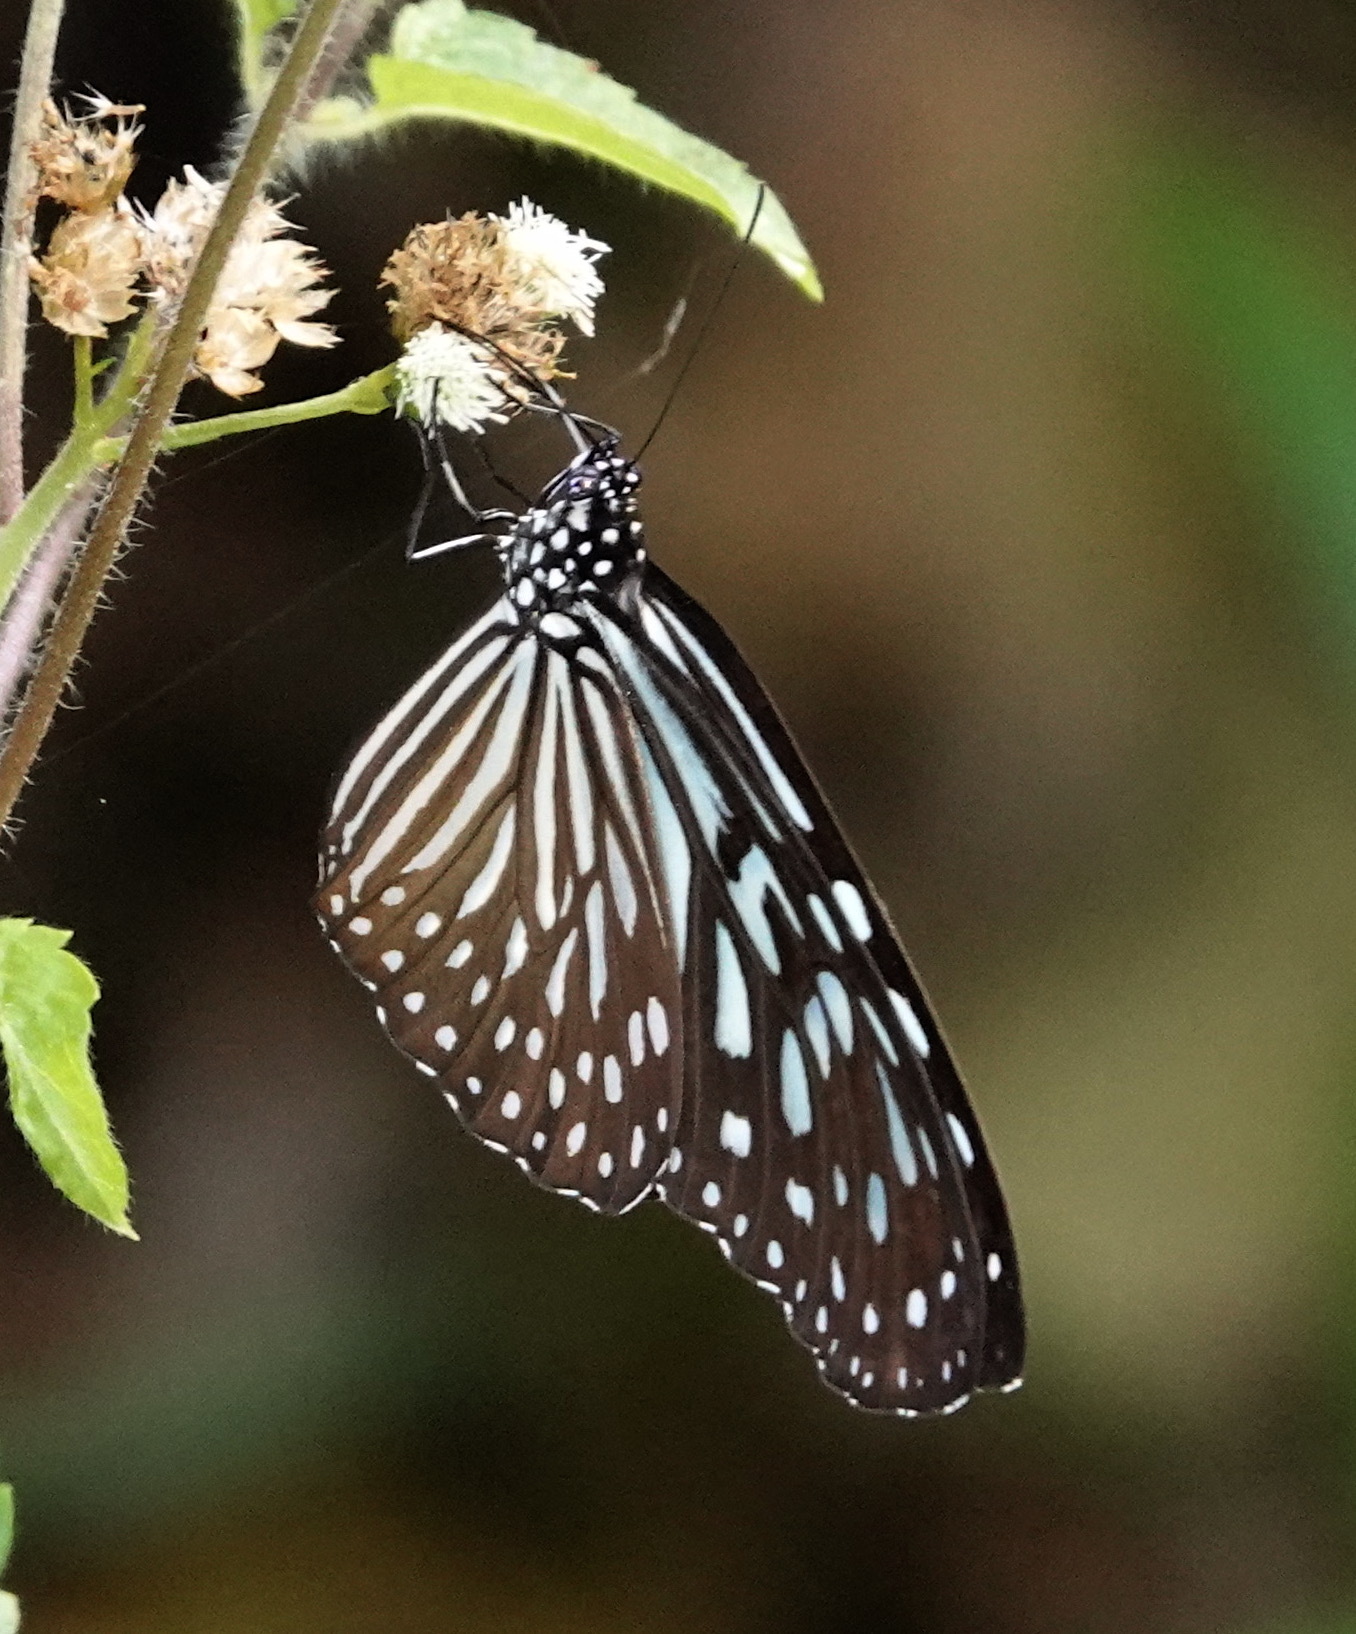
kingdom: Animalia
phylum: Arthropoda
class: Insecta
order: Lepidoptera
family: Nymphalidae
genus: Ideopsis
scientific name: Ideopsis vulgaris
